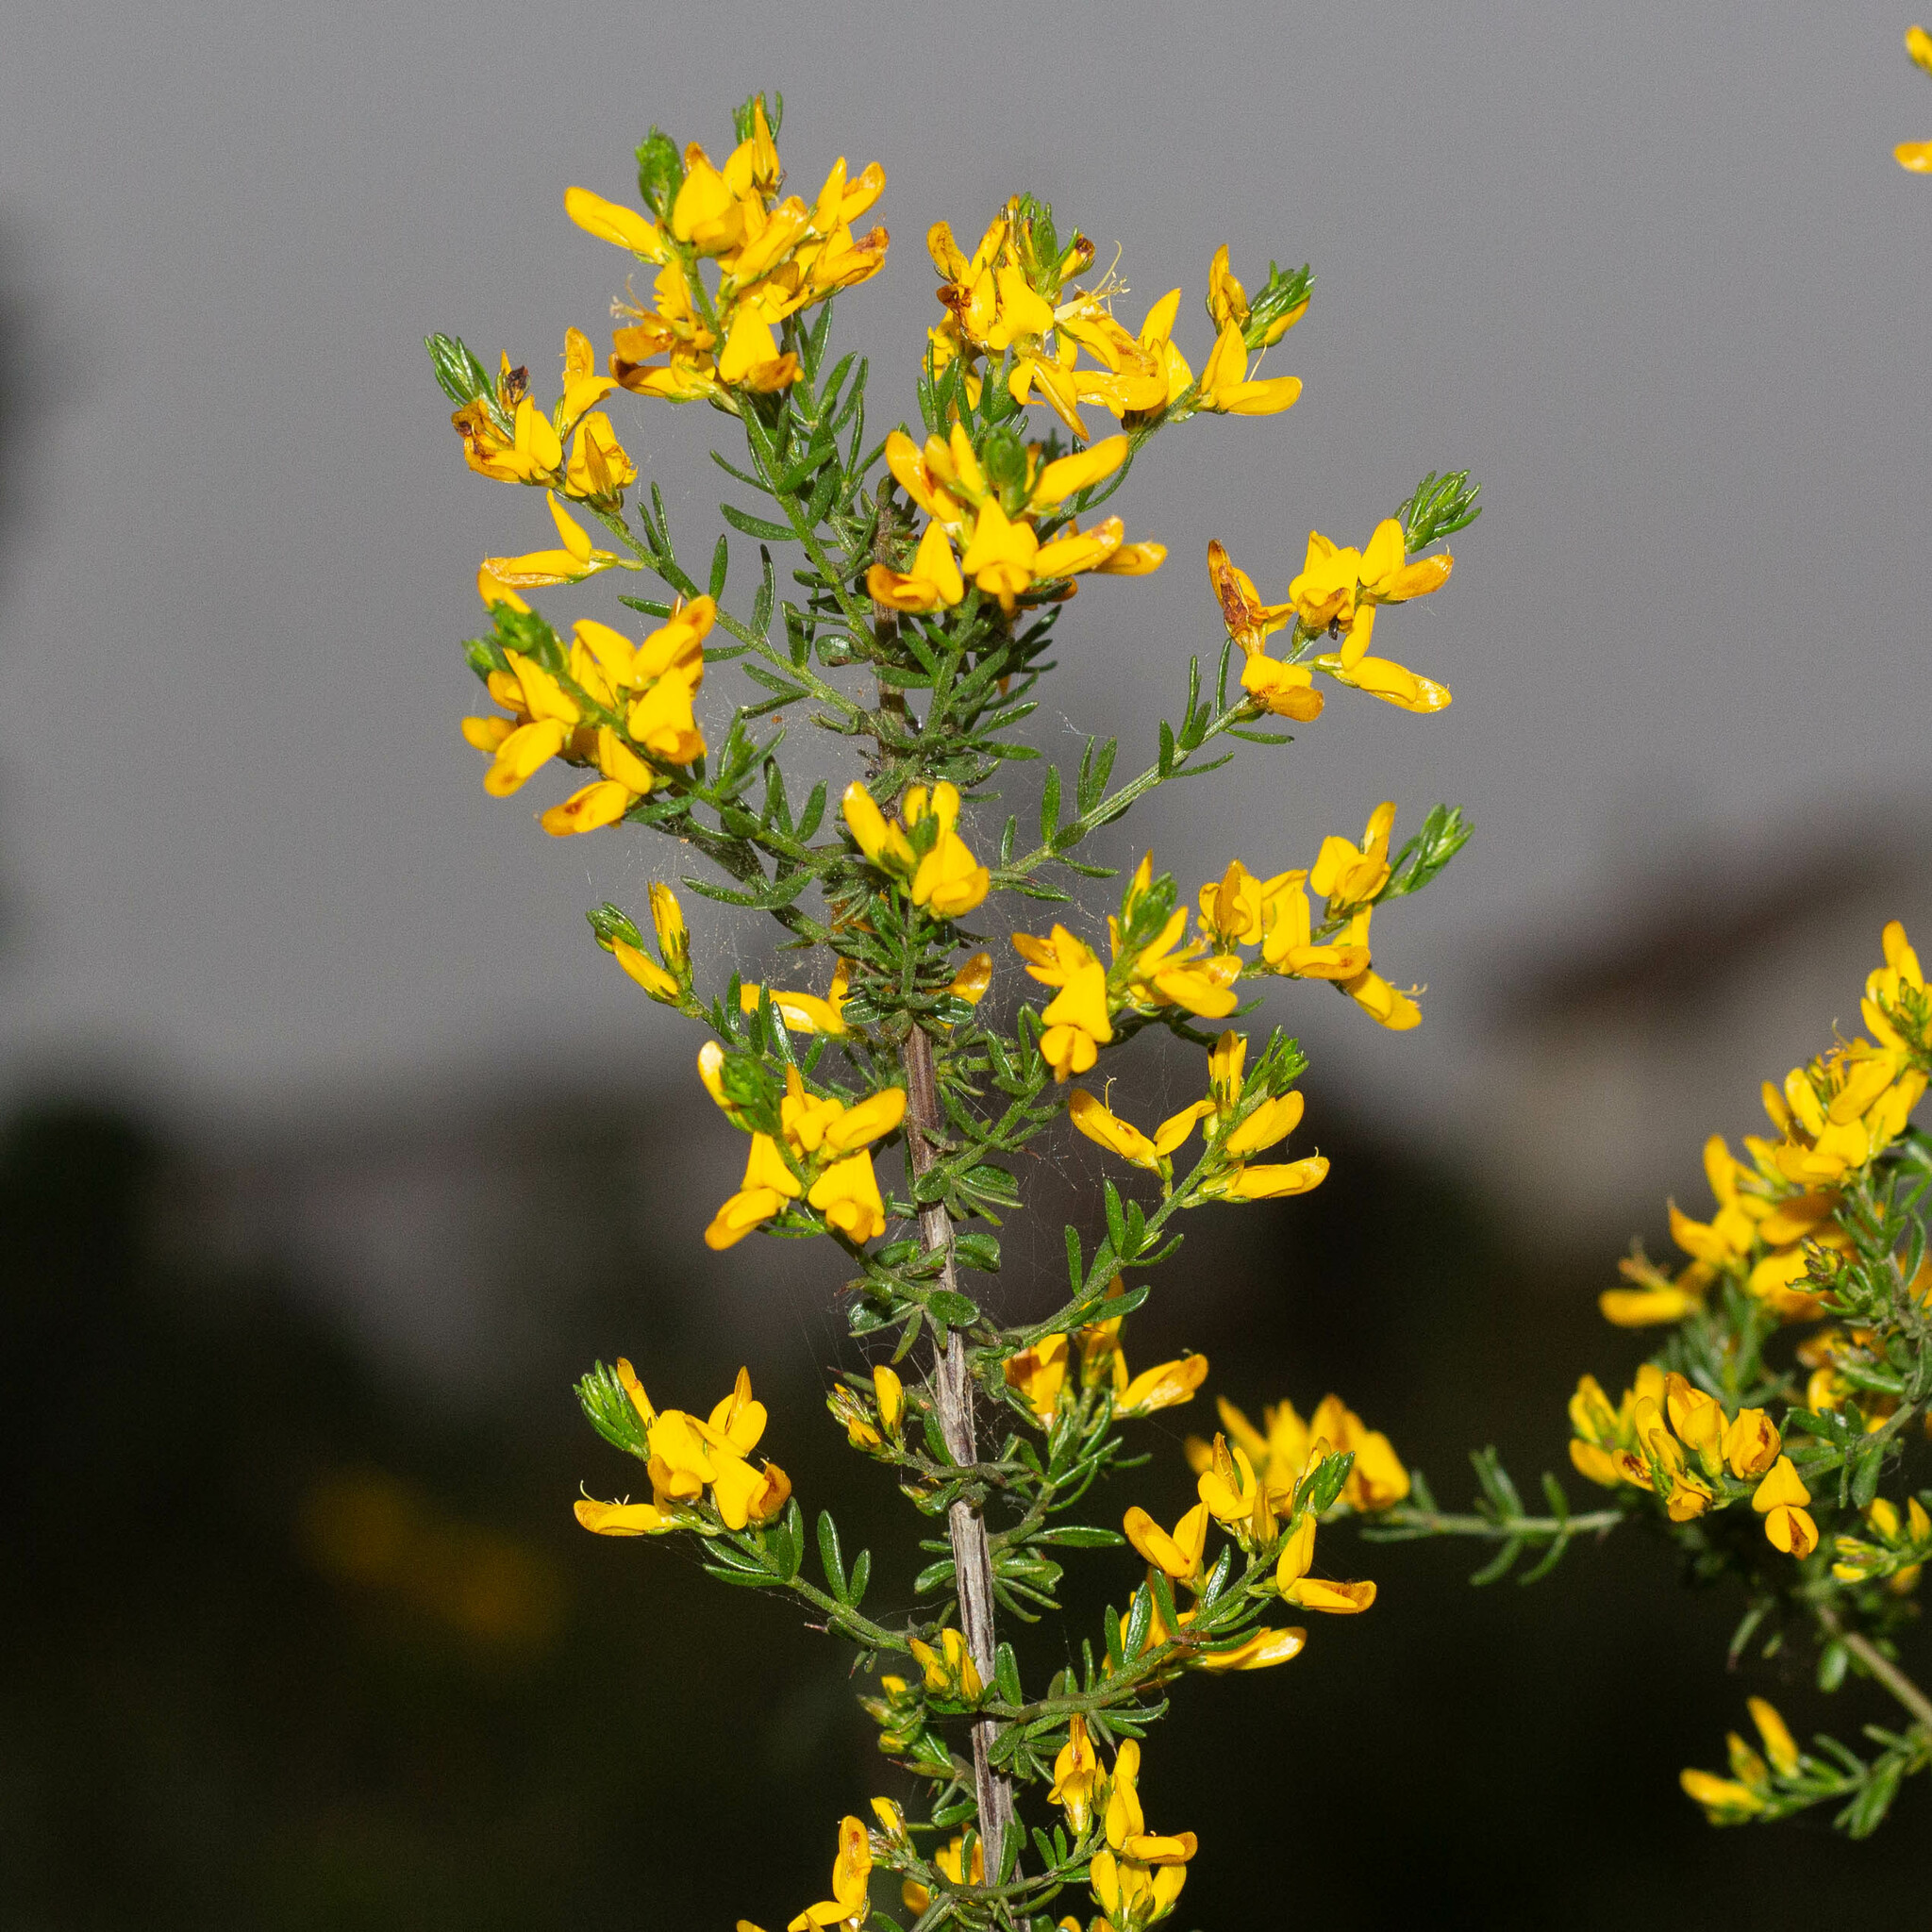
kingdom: Plantae
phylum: Tracheophyta
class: Magnoliopsida
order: Fabales
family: Fabaceae
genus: Genista
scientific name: Genista triacanthos
